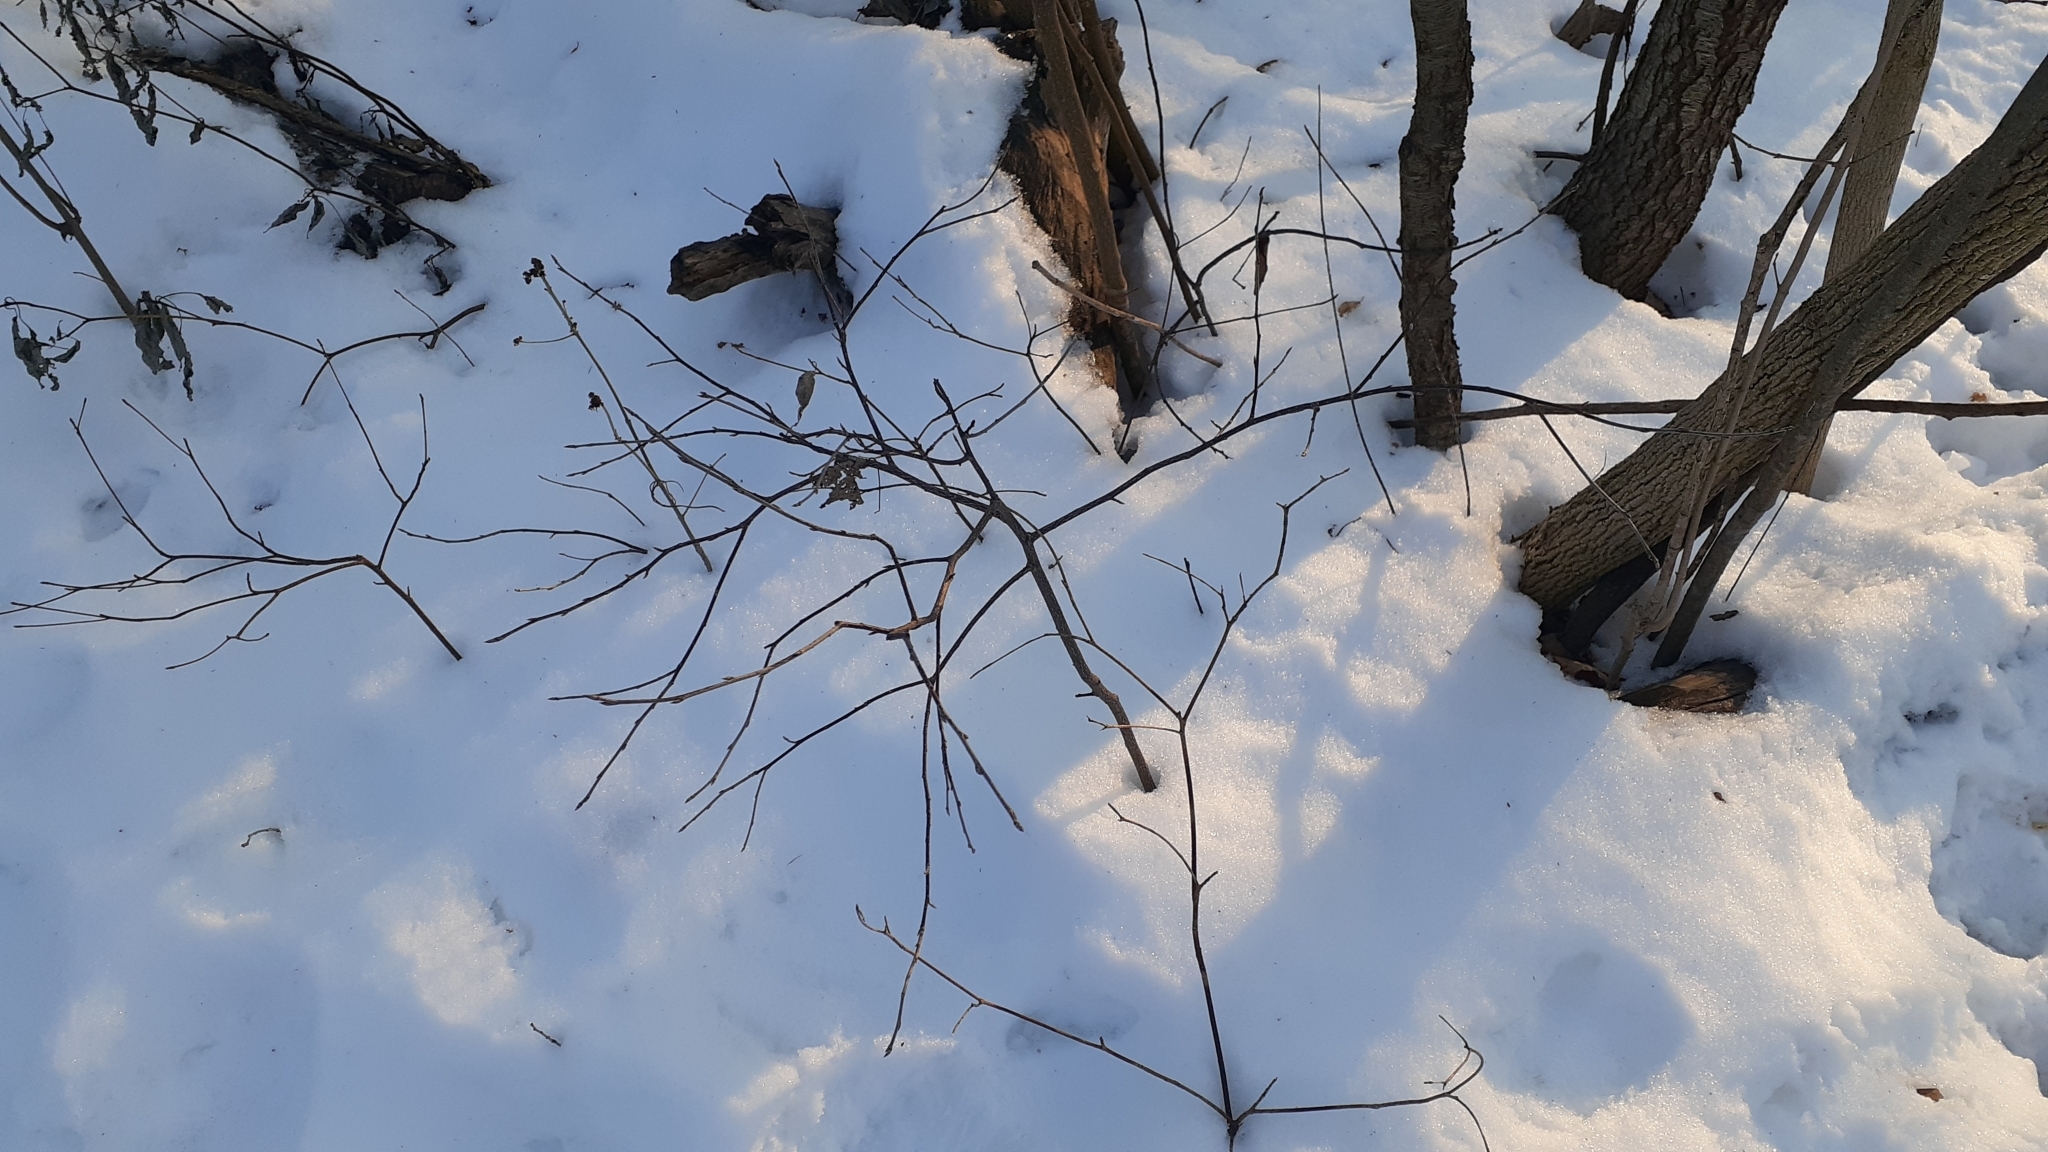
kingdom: Plantae
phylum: Tracheophyta
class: Magnoliopsida
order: Rosales
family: Rosaceae
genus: Prunus
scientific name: Prunus virginiana
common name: Chokecherry
